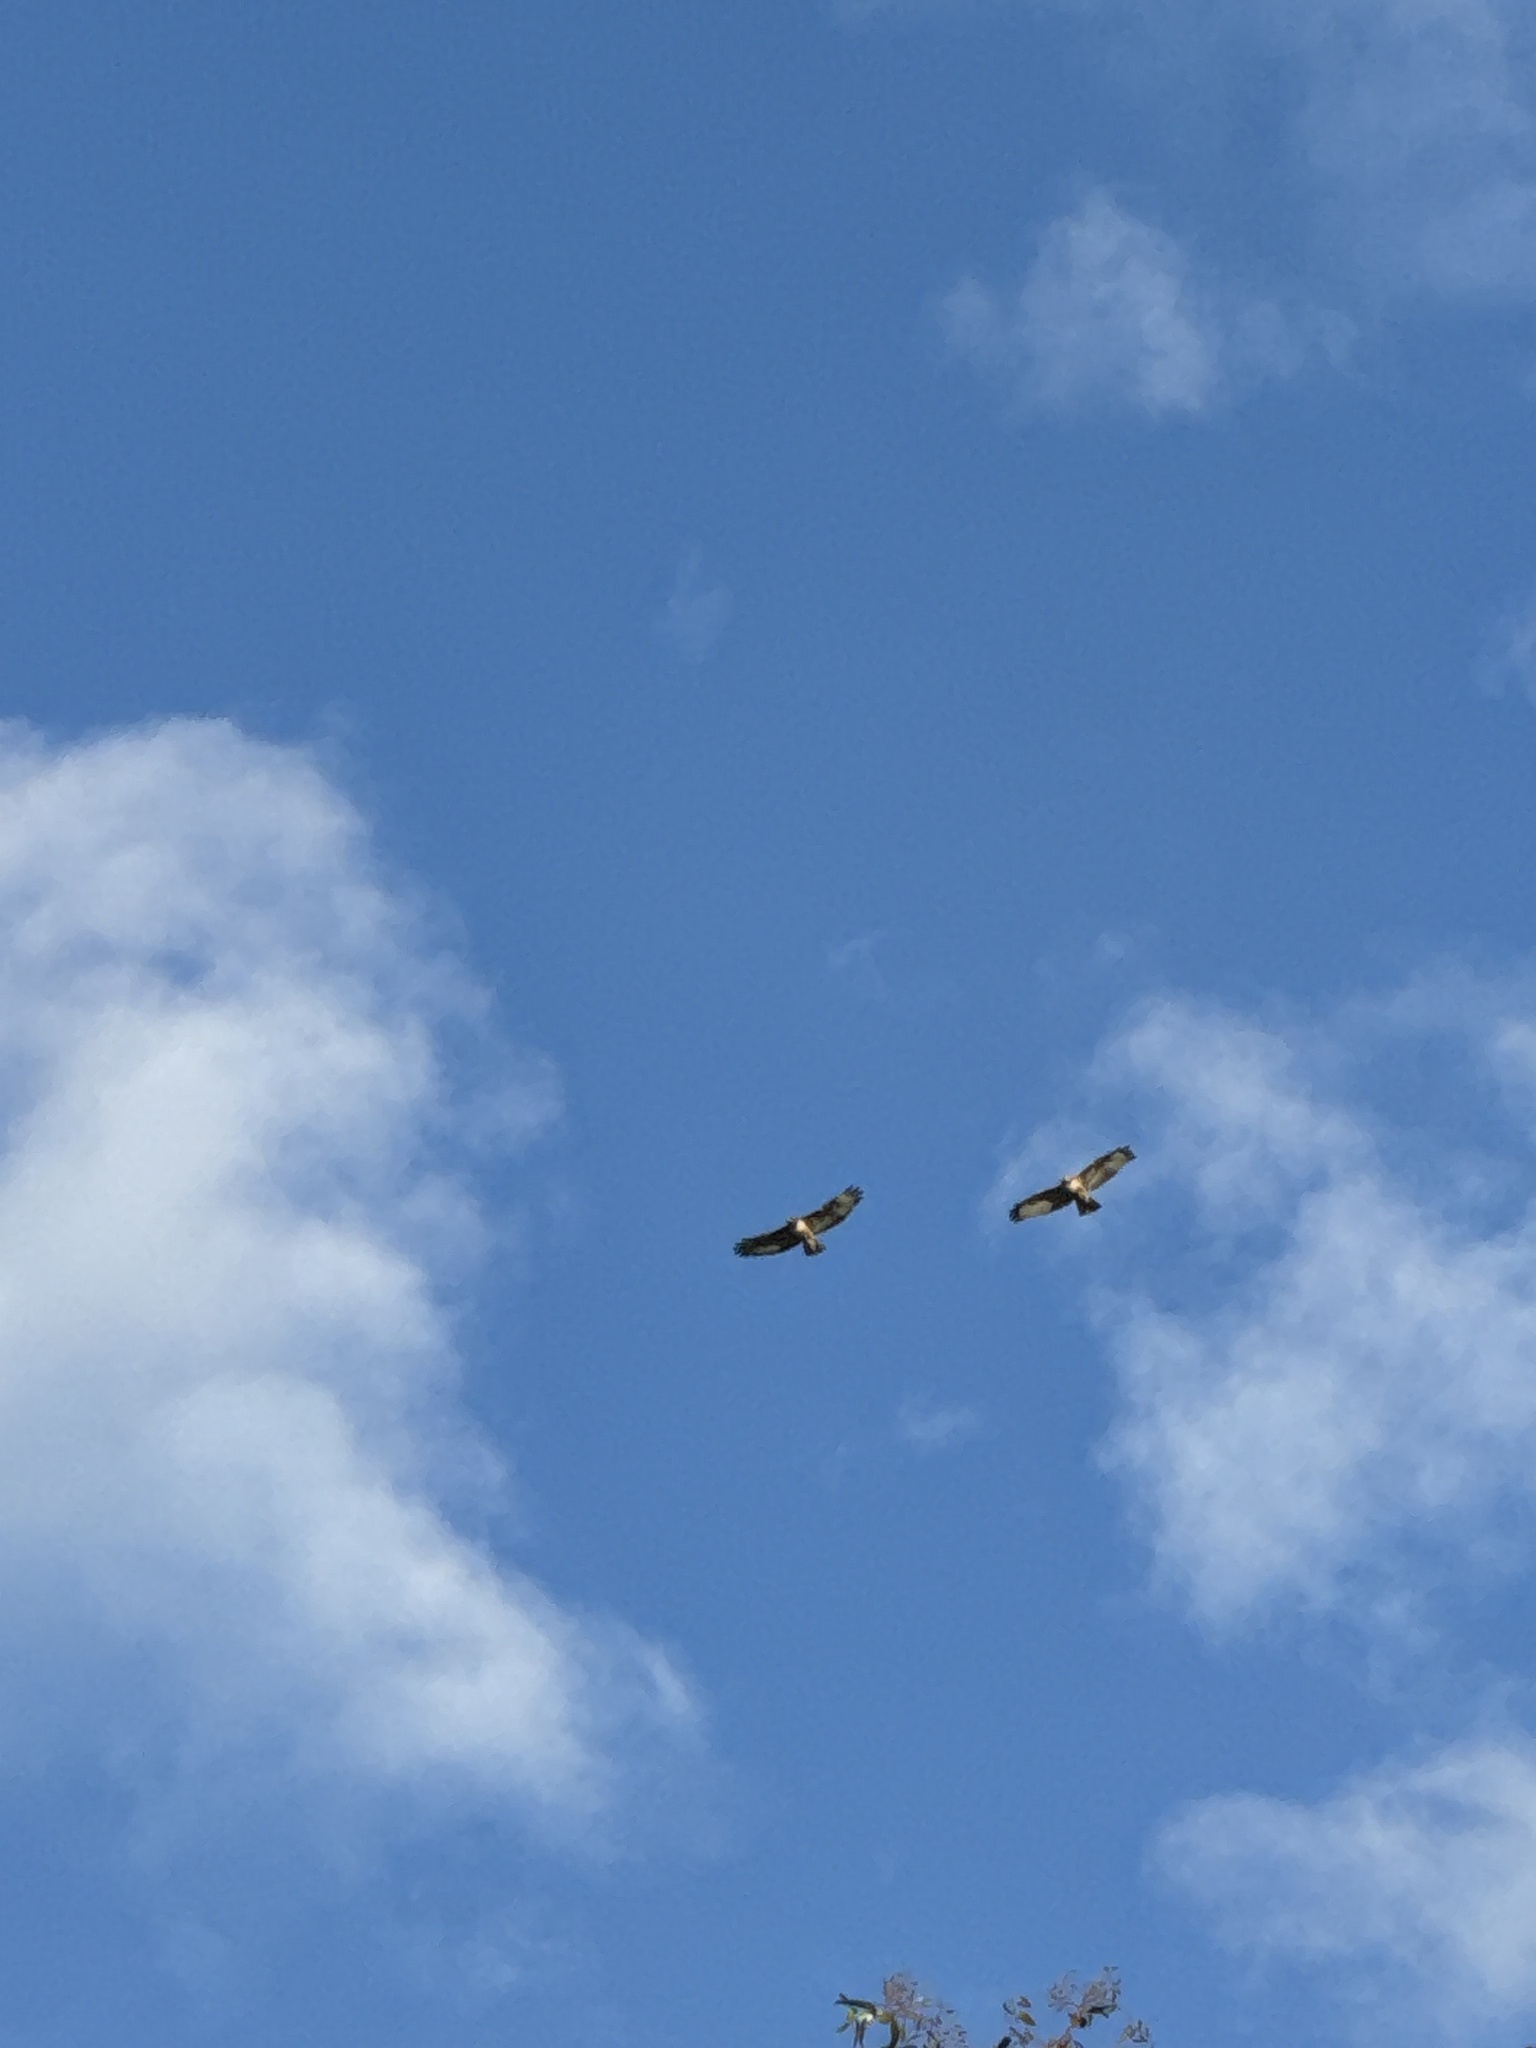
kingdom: Animalia
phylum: Chordata
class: Aves
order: Accipitriformes
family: Accipitridae
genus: Buteo
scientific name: Buteo jamaicensis
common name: Red-tailed hawk
